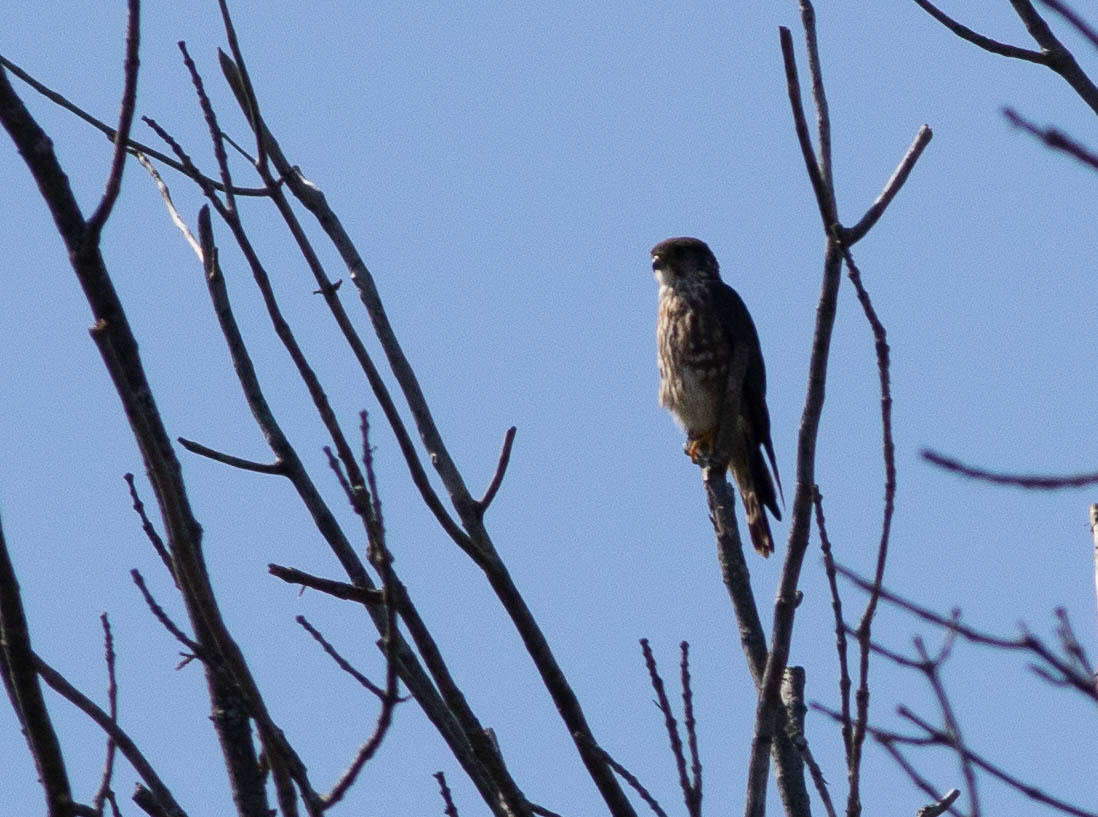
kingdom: Animalia
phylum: Chordata
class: Aves
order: Falconiformes
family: Falconidae
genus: Falco
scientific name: Falco columbarius
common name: Merlin
